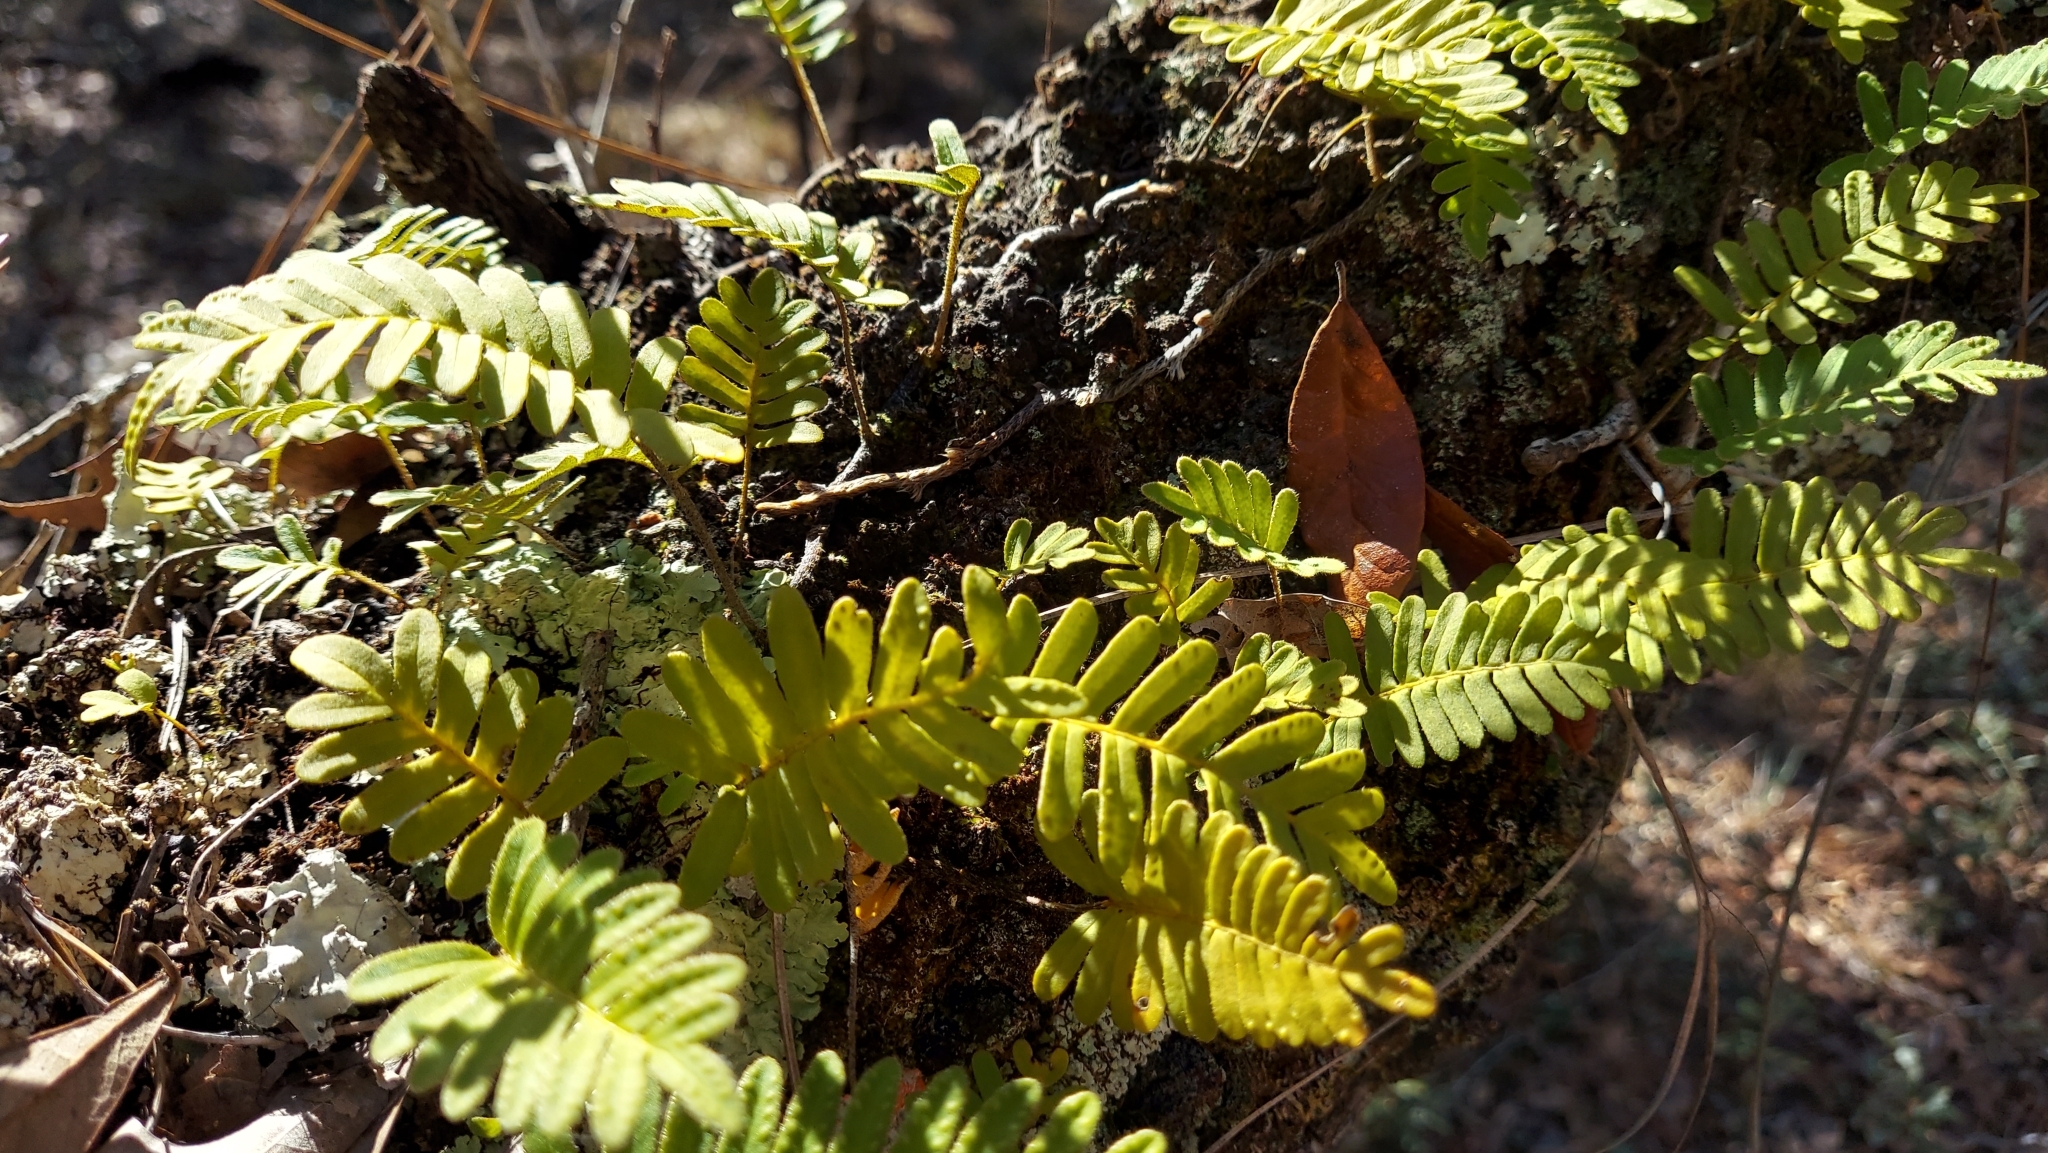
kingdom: Plantae
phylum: Tracheophyta
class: Polypodiopsida
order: Polypodiales
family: Polypodiaceae
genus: Pleopeltis
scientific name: Pleopeltis michauxiana
